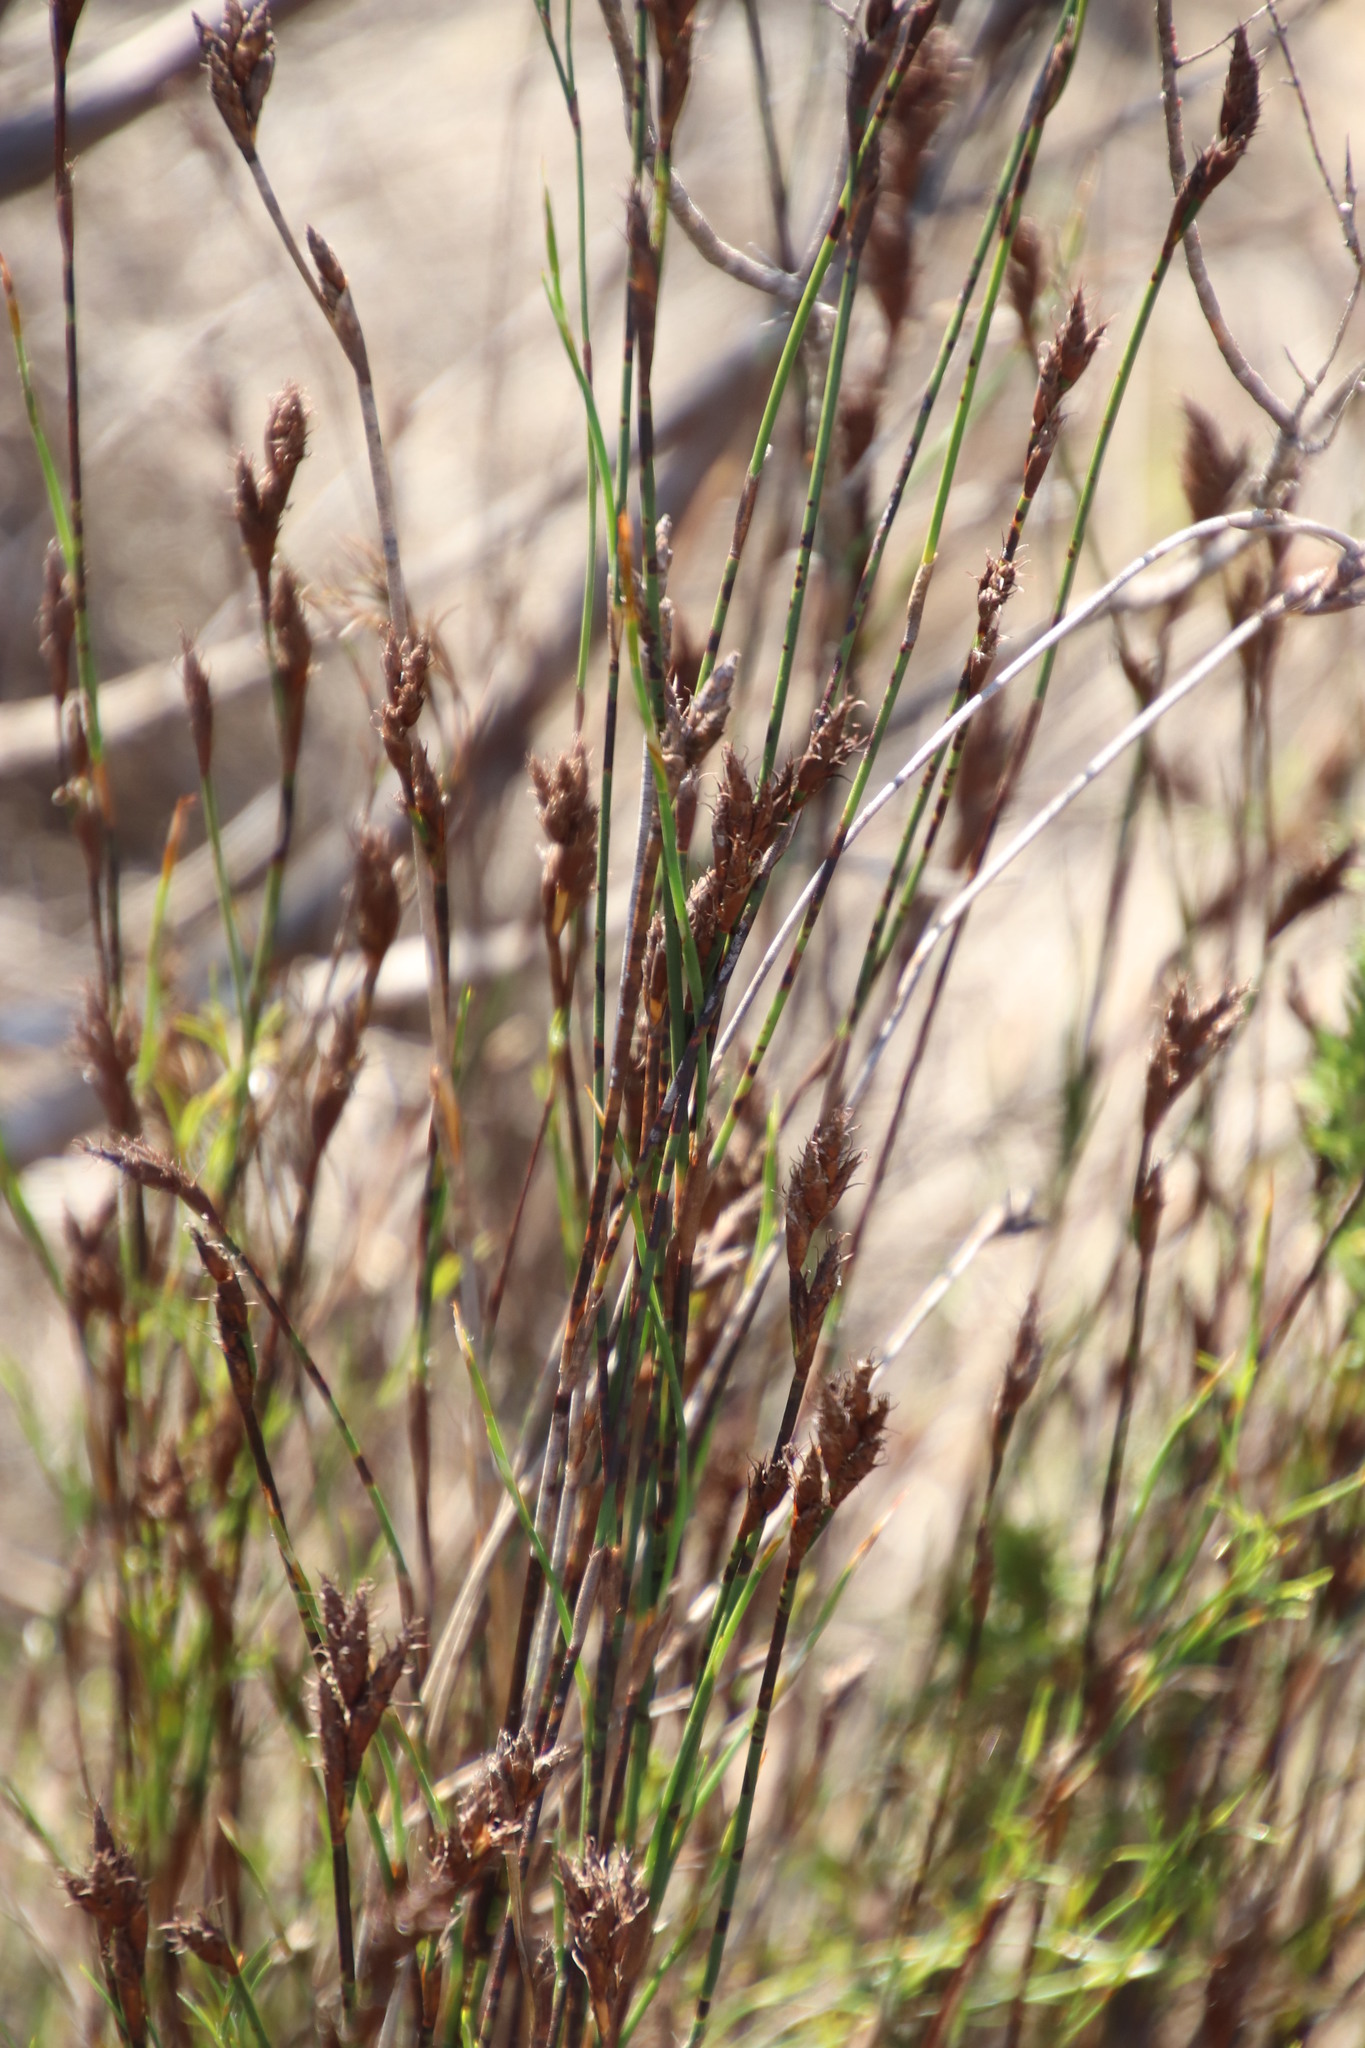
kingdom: Plantae
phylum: Tracheophyta
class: Liliopsida
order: Poales
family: Restionaceae
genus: Restio
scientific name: Restio bifurcus
